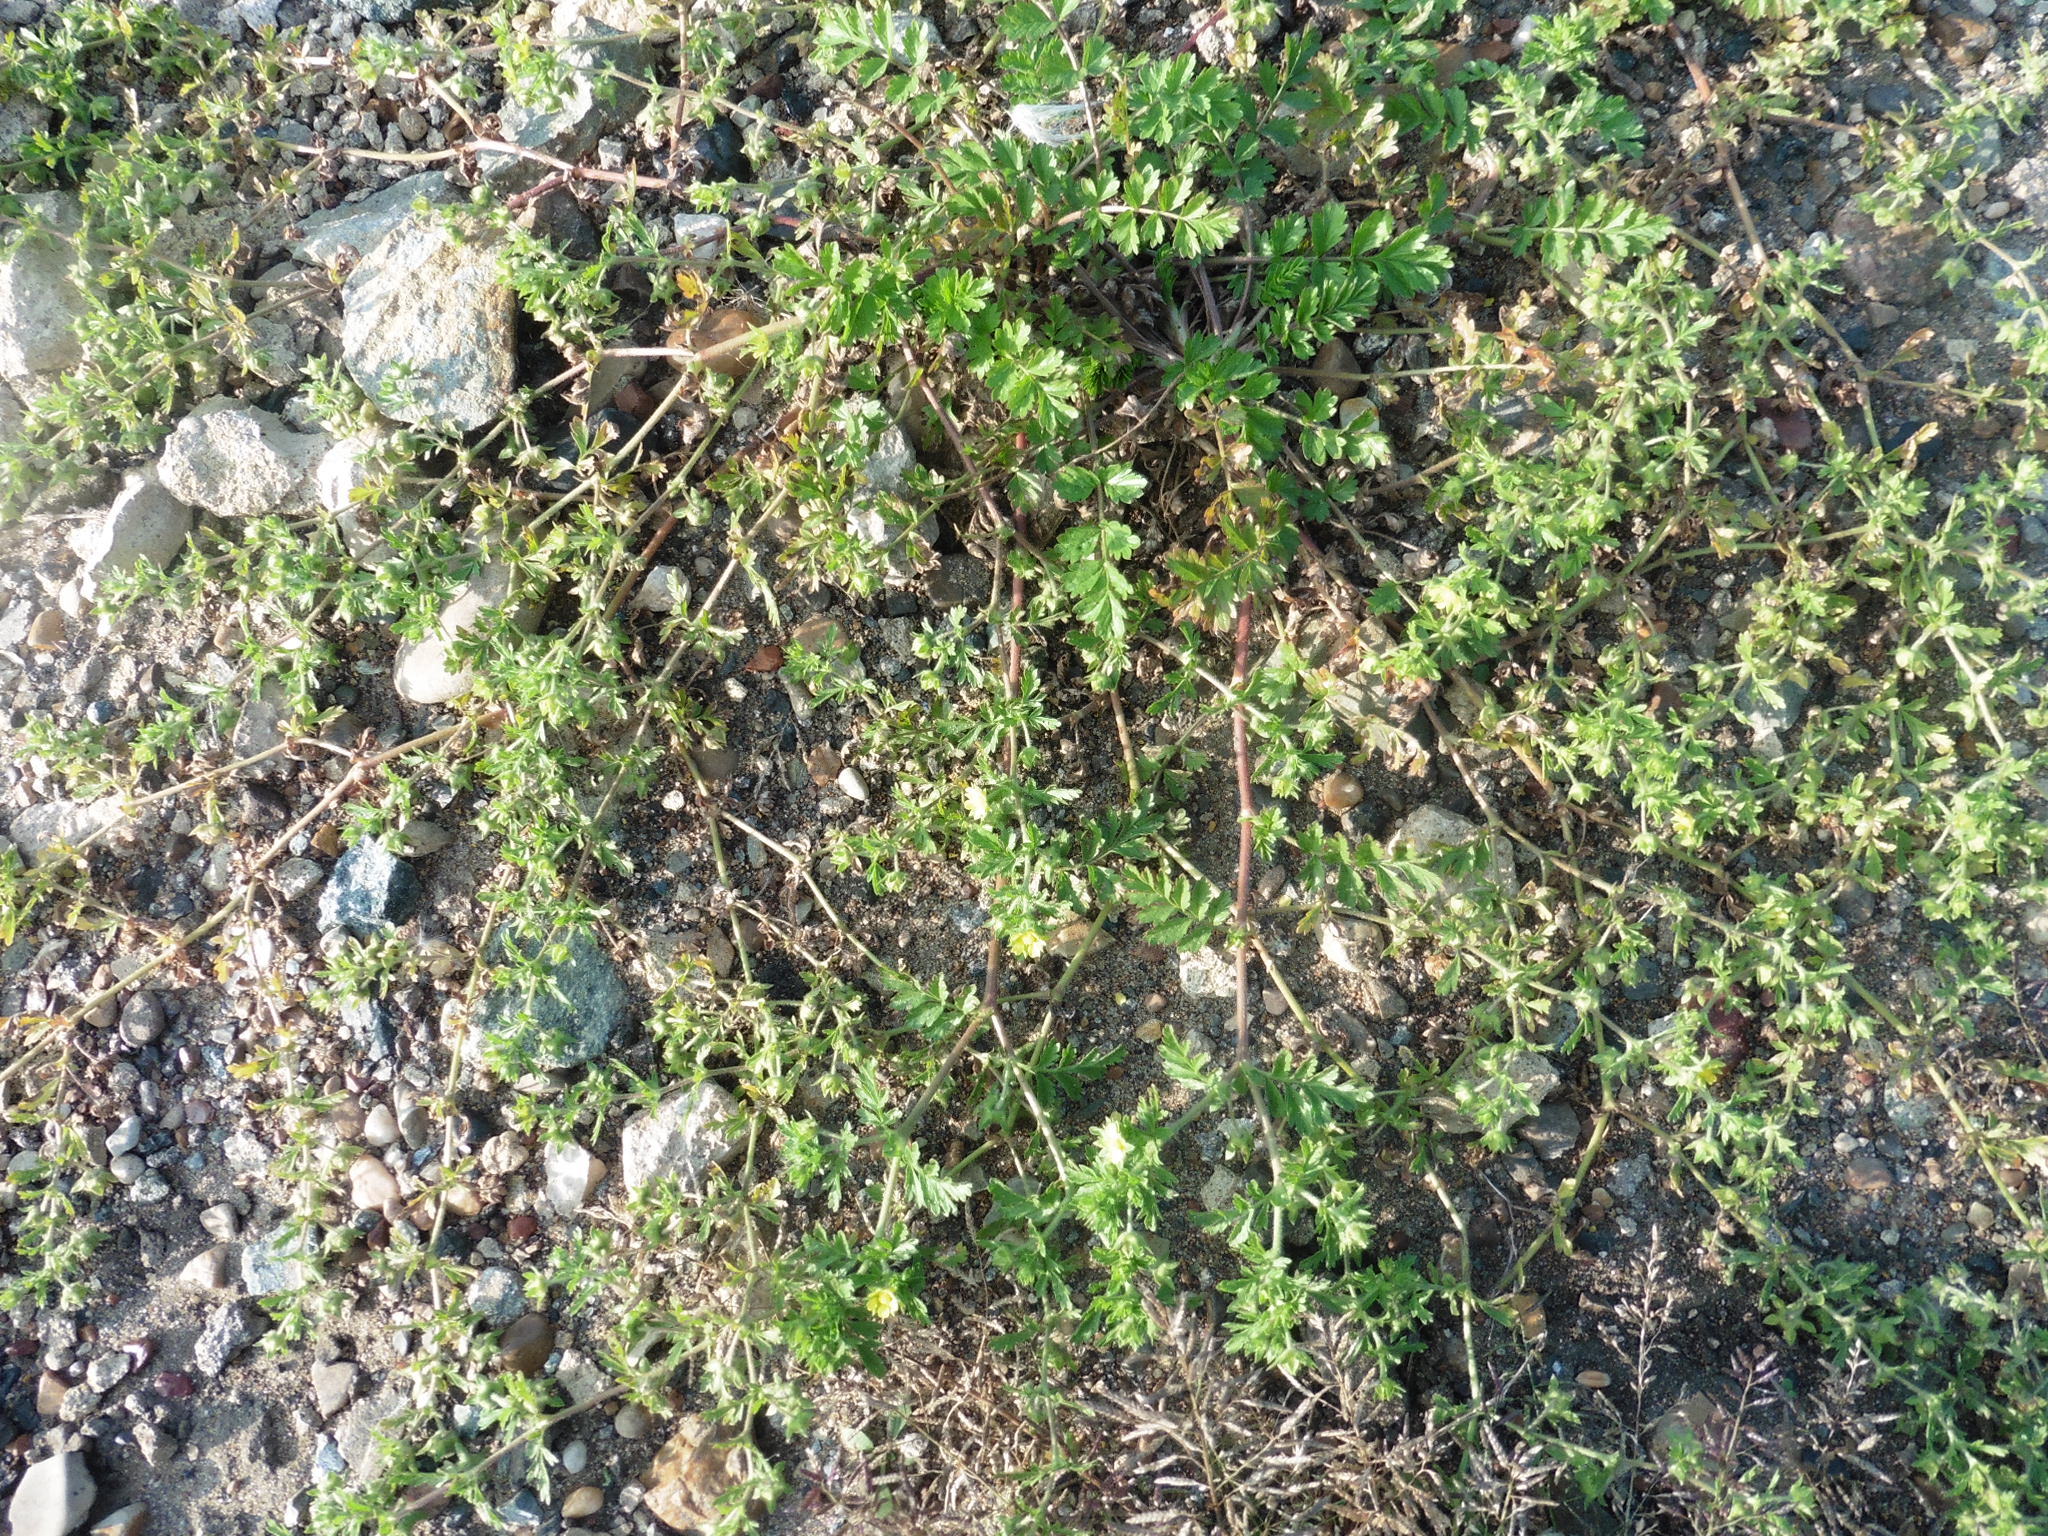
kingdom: Plantae
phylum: Tracheophyta
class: Magnoliopsida
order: Rosales
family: Rosaceae
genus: Potentilla
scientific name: Potentilla supina
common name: Prostrate cinquefoil
